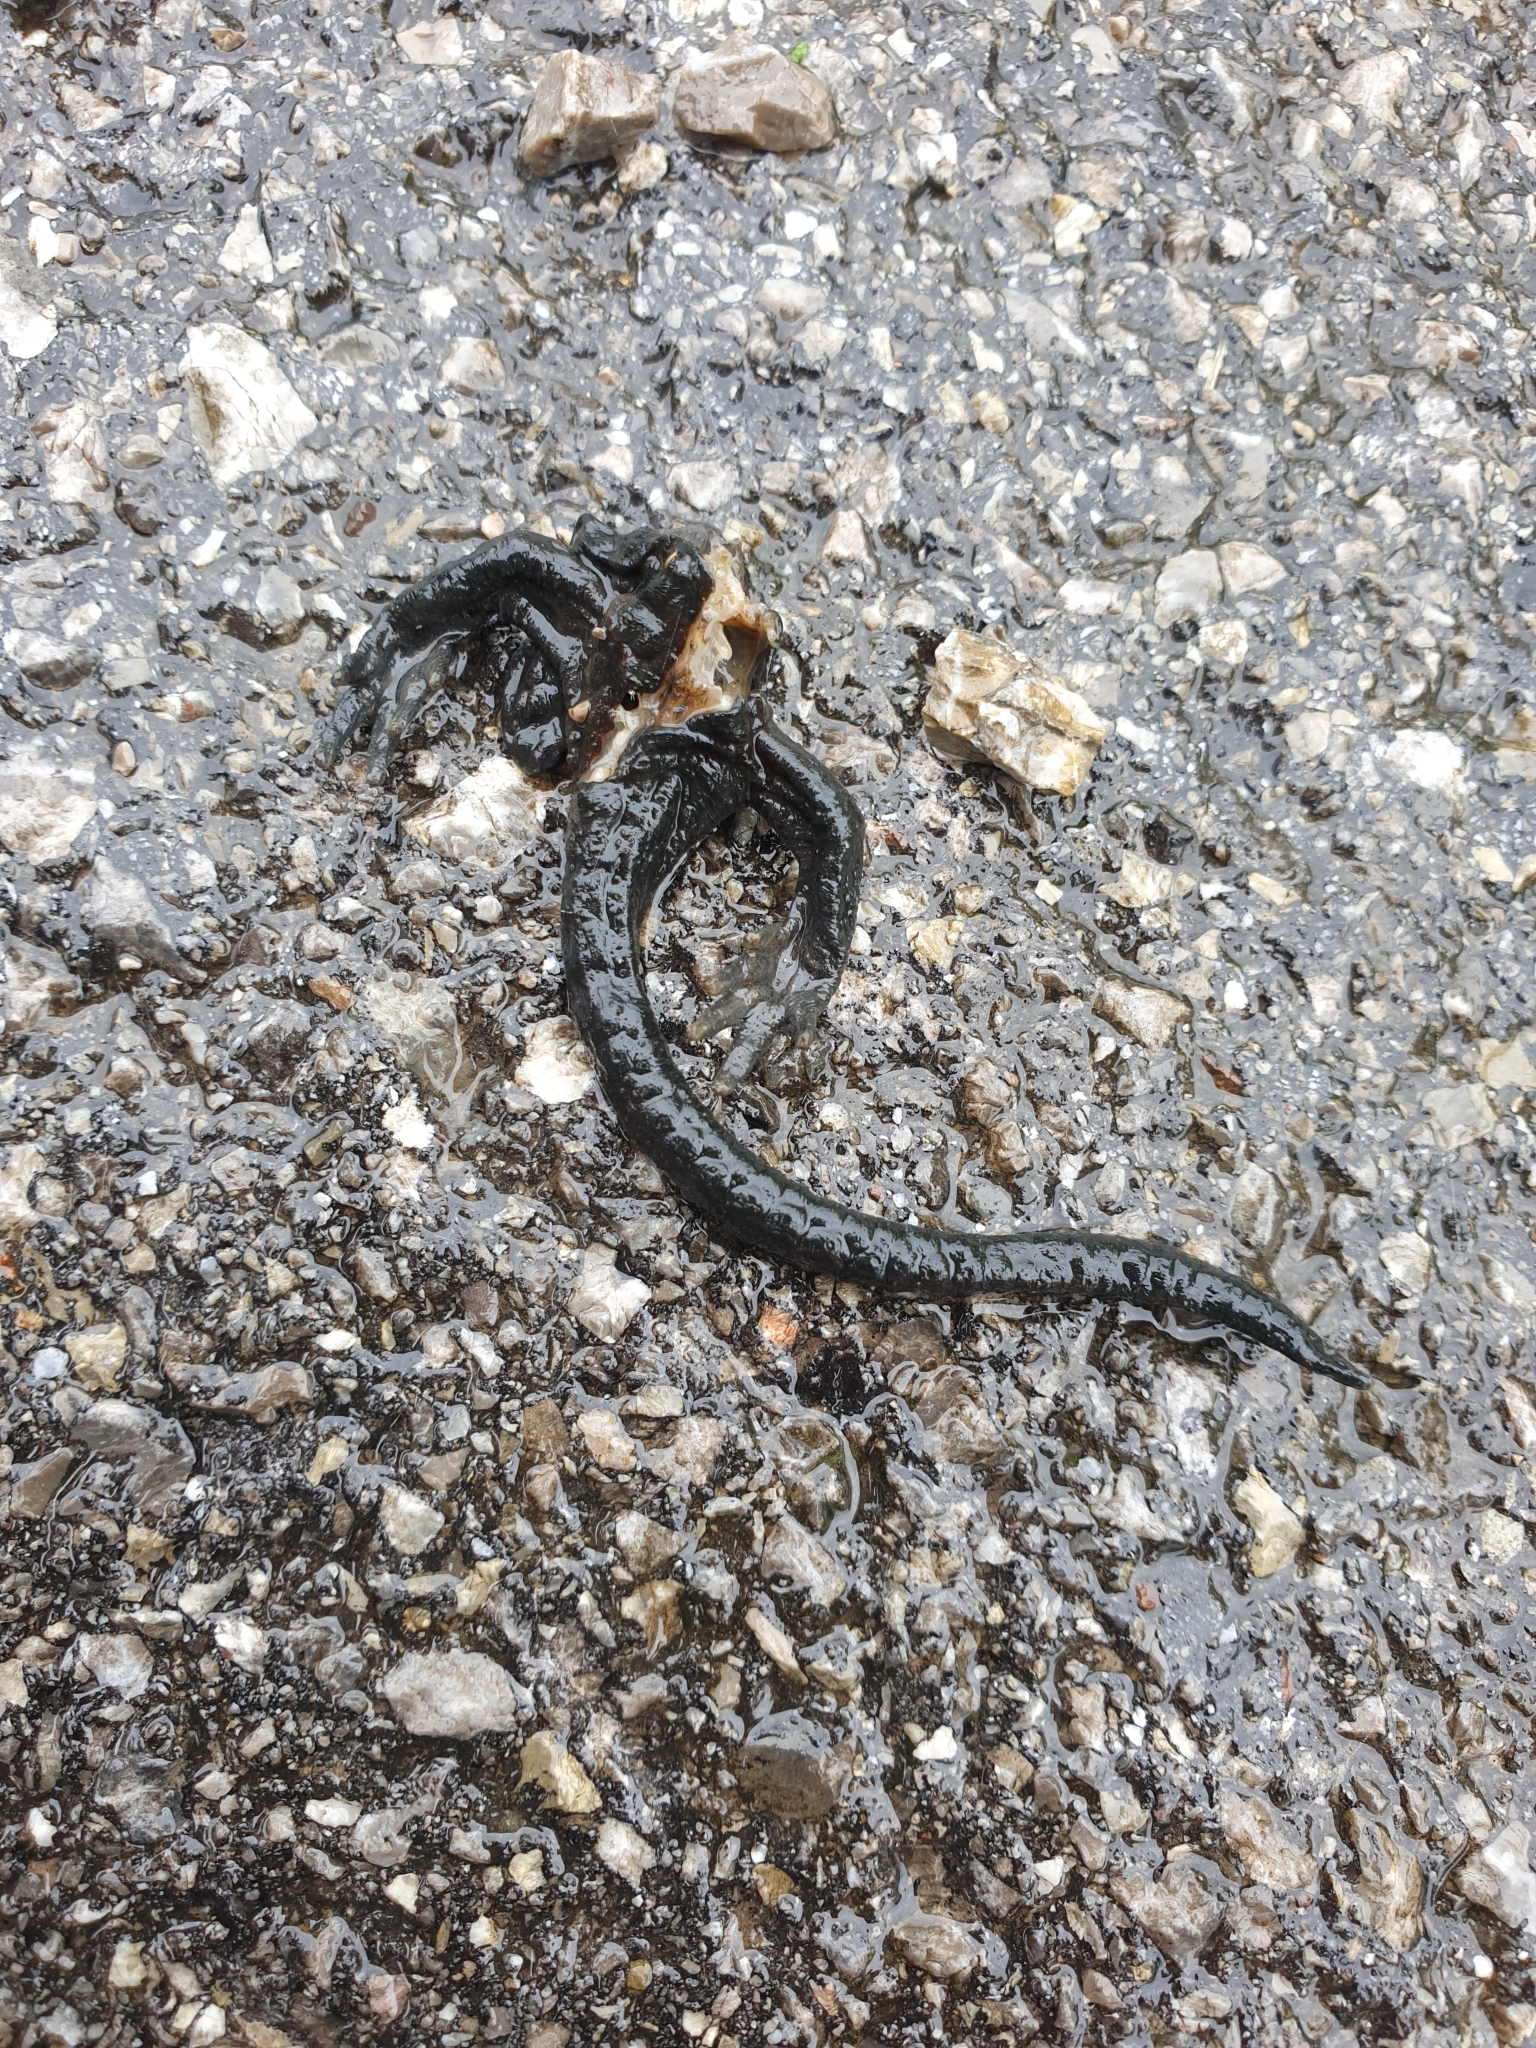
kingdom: Animalia
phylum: Chordata
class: Amphibia
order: Caudata
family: Salamandridae
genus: Salamandra
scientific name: Salamandra atra
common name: Alpine salamander
